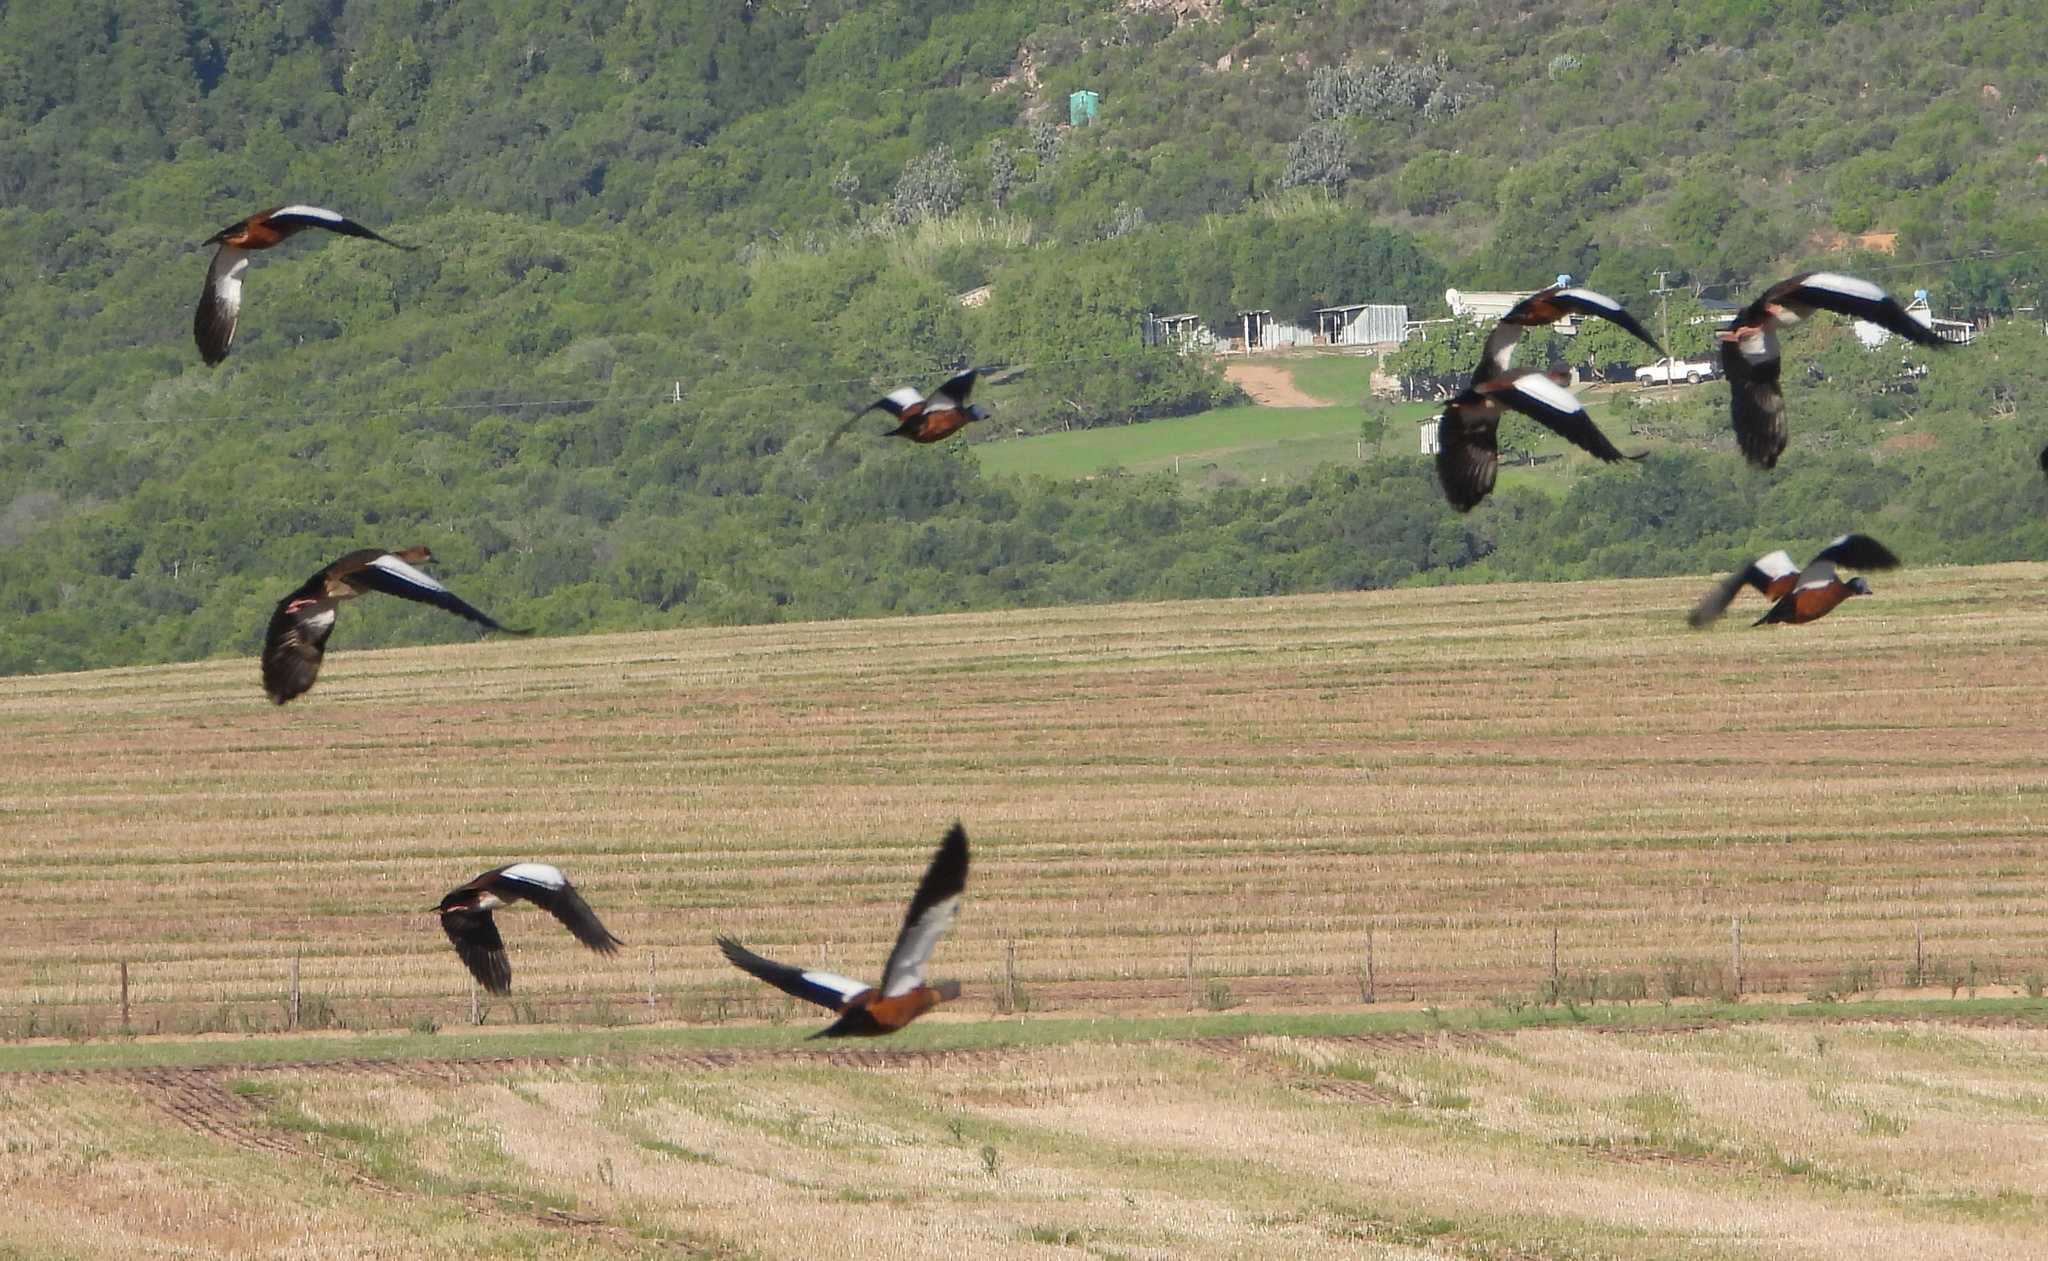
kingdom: Animalia
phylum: Chordata
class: Aves
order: Anseriformes
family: Anatidae
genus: Tadorna
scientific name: Tadorna cana
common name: South african shelduck
